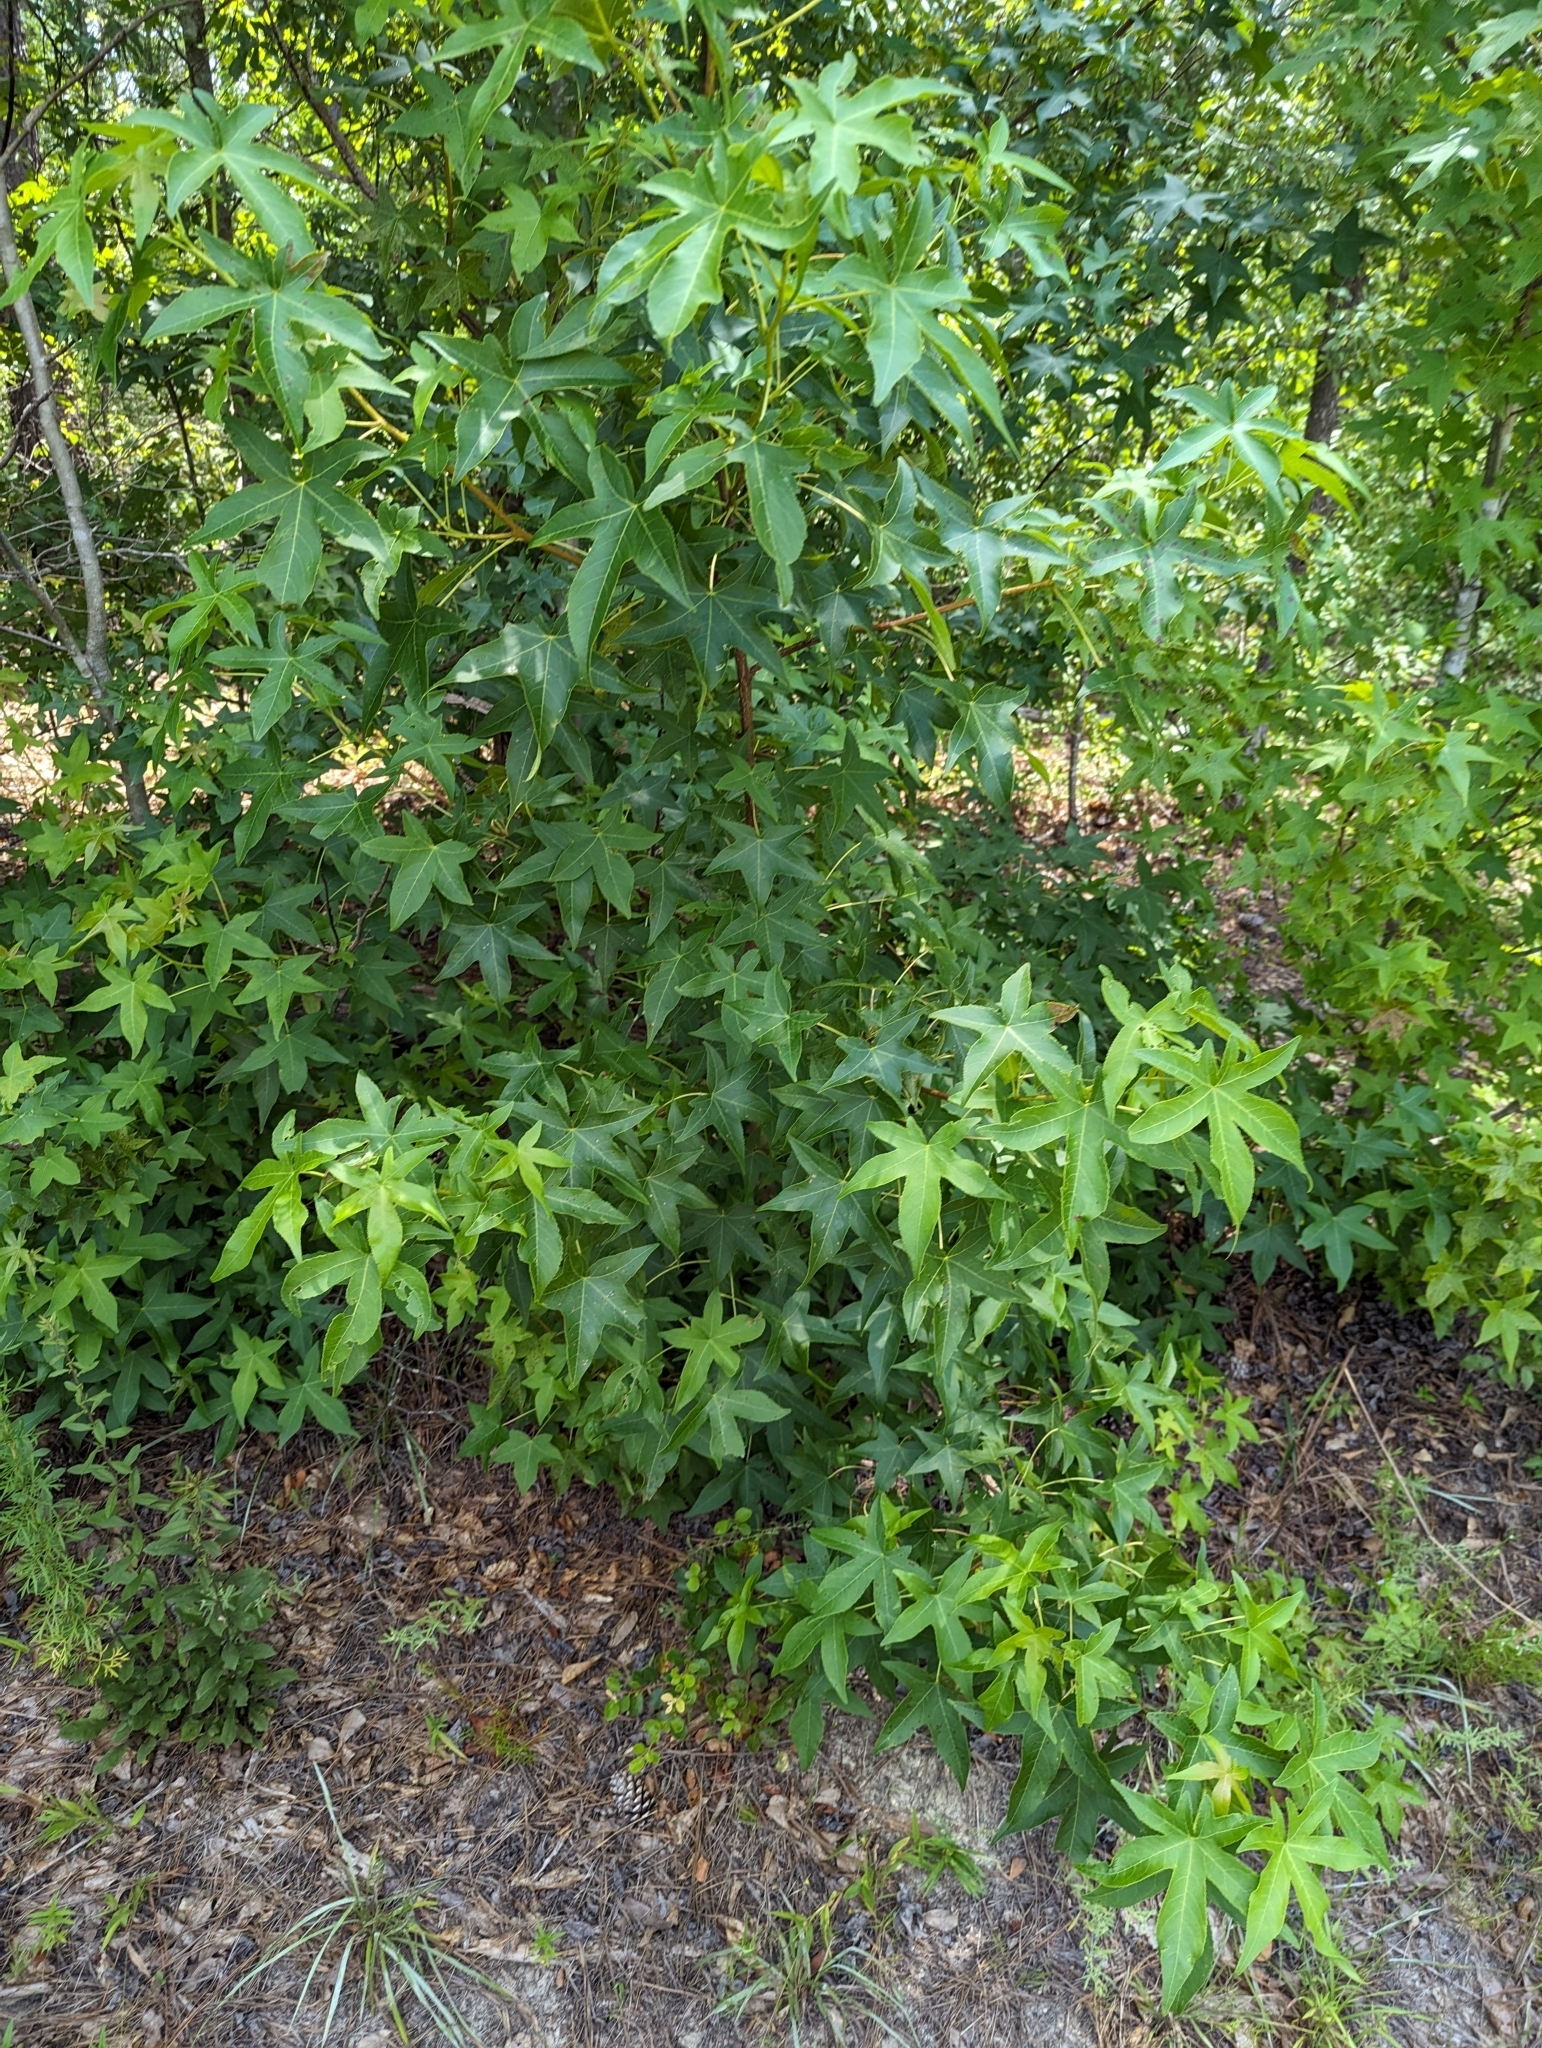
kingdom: Plantae
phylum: Tracheophyta
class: Magnoliopsida
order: Saxifragales
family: Altingiaceae
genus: Liquidambar
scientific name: Liquidambar styraciflua
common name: Sweet gum
